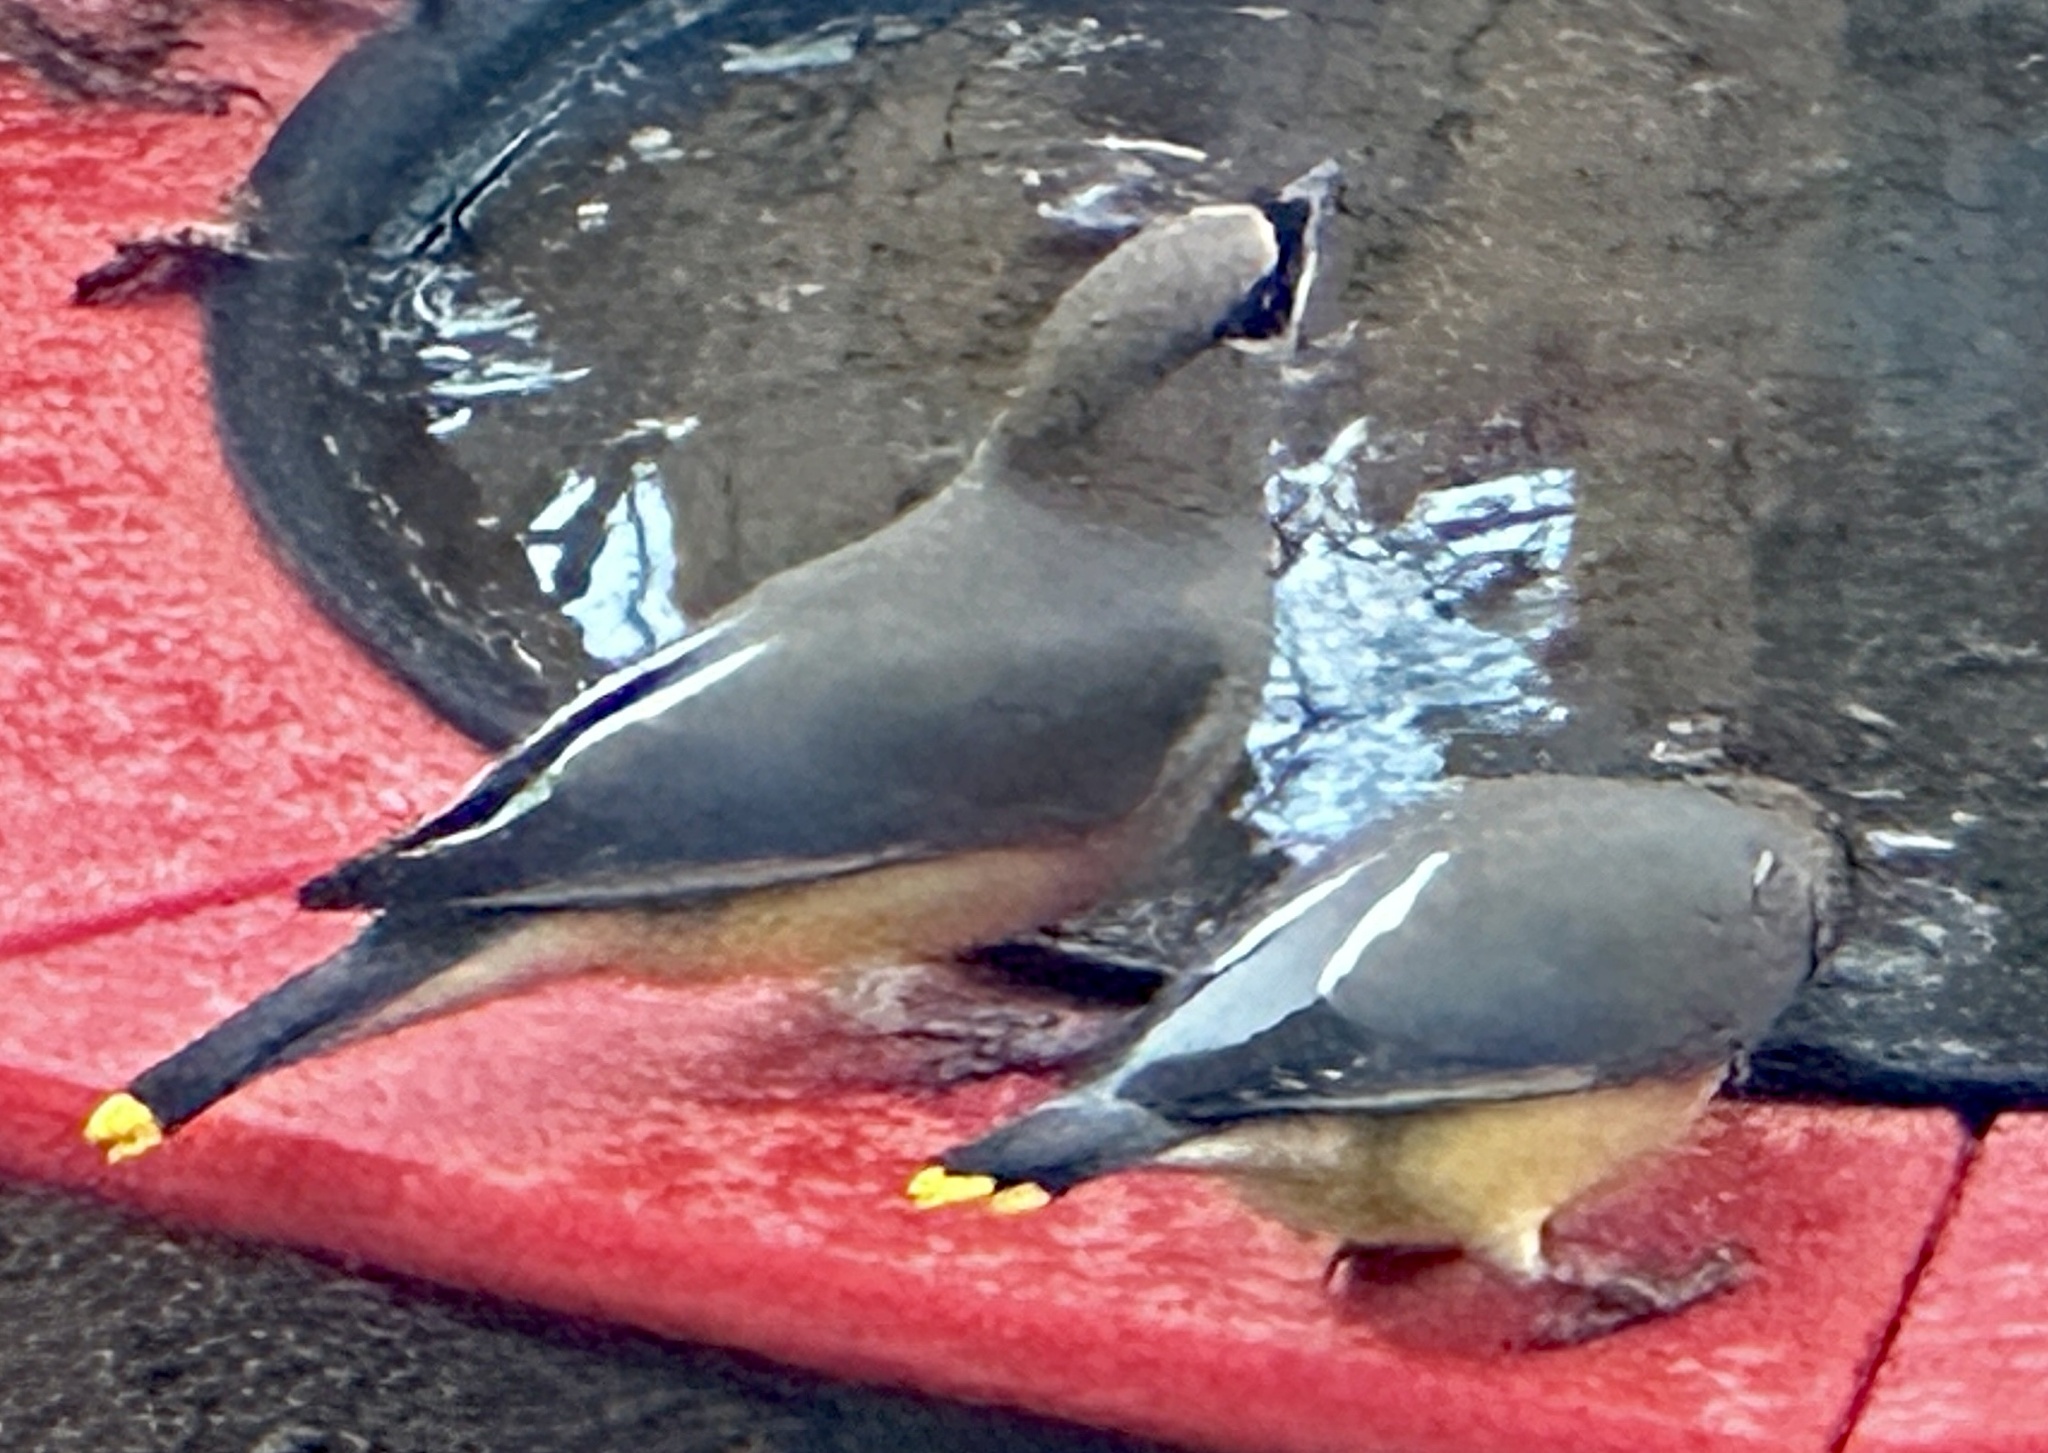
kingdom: Animalia
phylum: Chordata
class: Aves
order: Passeriformes
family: Bombycillidae
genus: Bombycilla
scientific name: Bombycilla cedrorum
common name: Cedar waxwing
